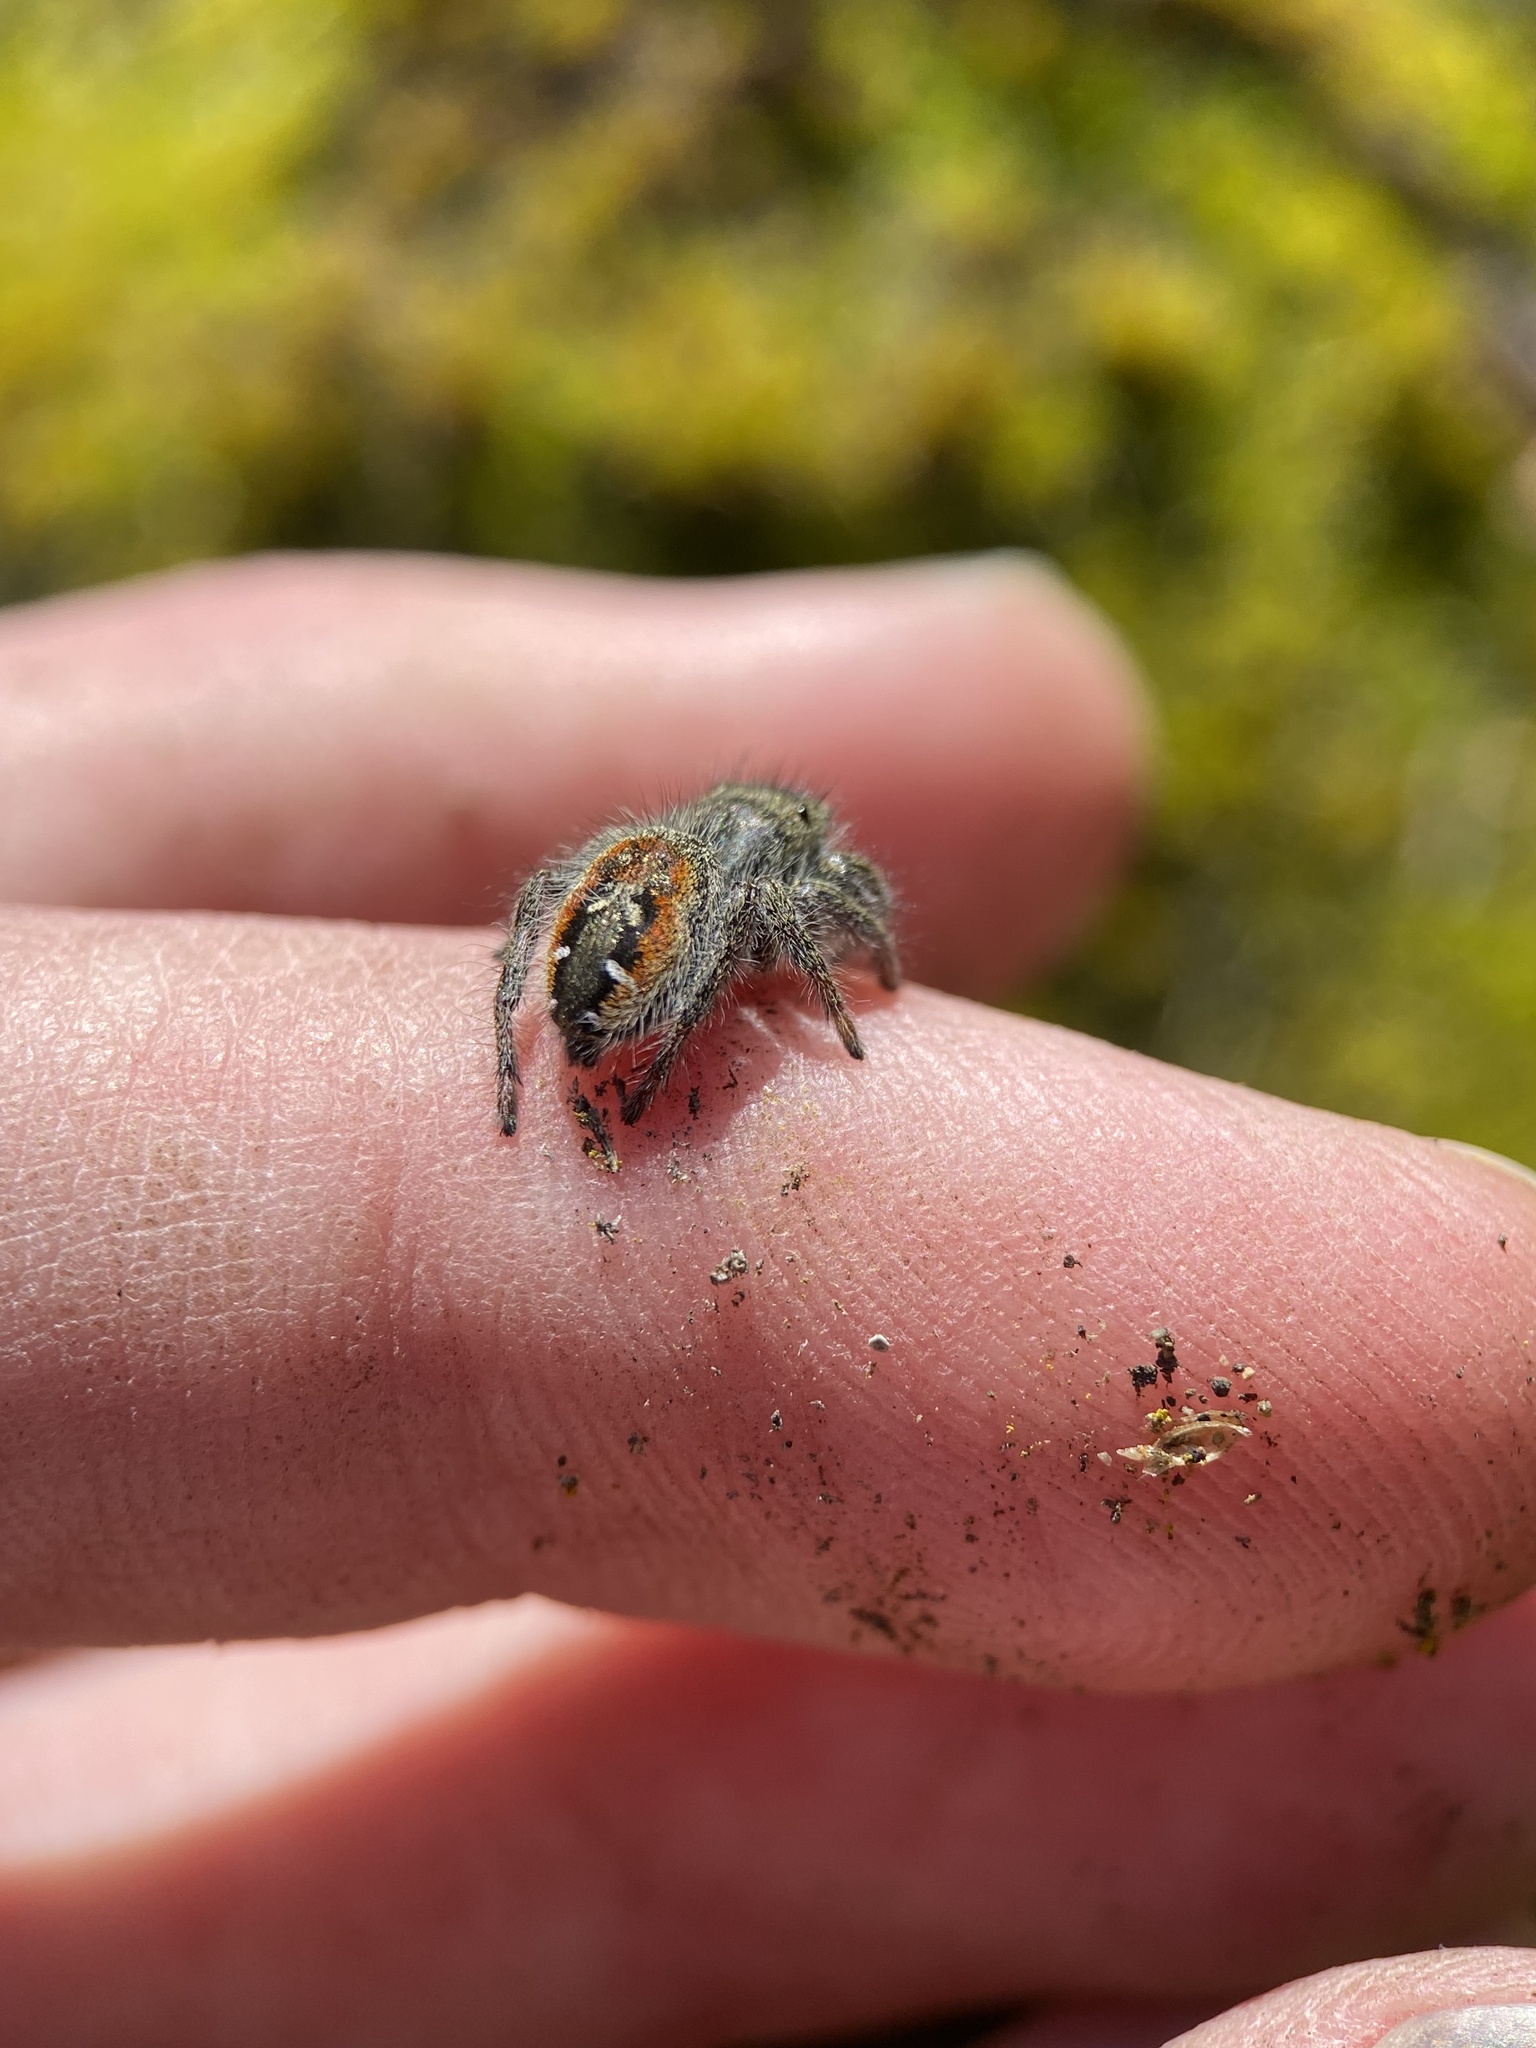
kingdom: Animalia
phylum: Arthropoda
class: Arachnida
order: Araneae
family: Salticidae
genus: Phidippus
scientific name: Phidippus johnsoni
